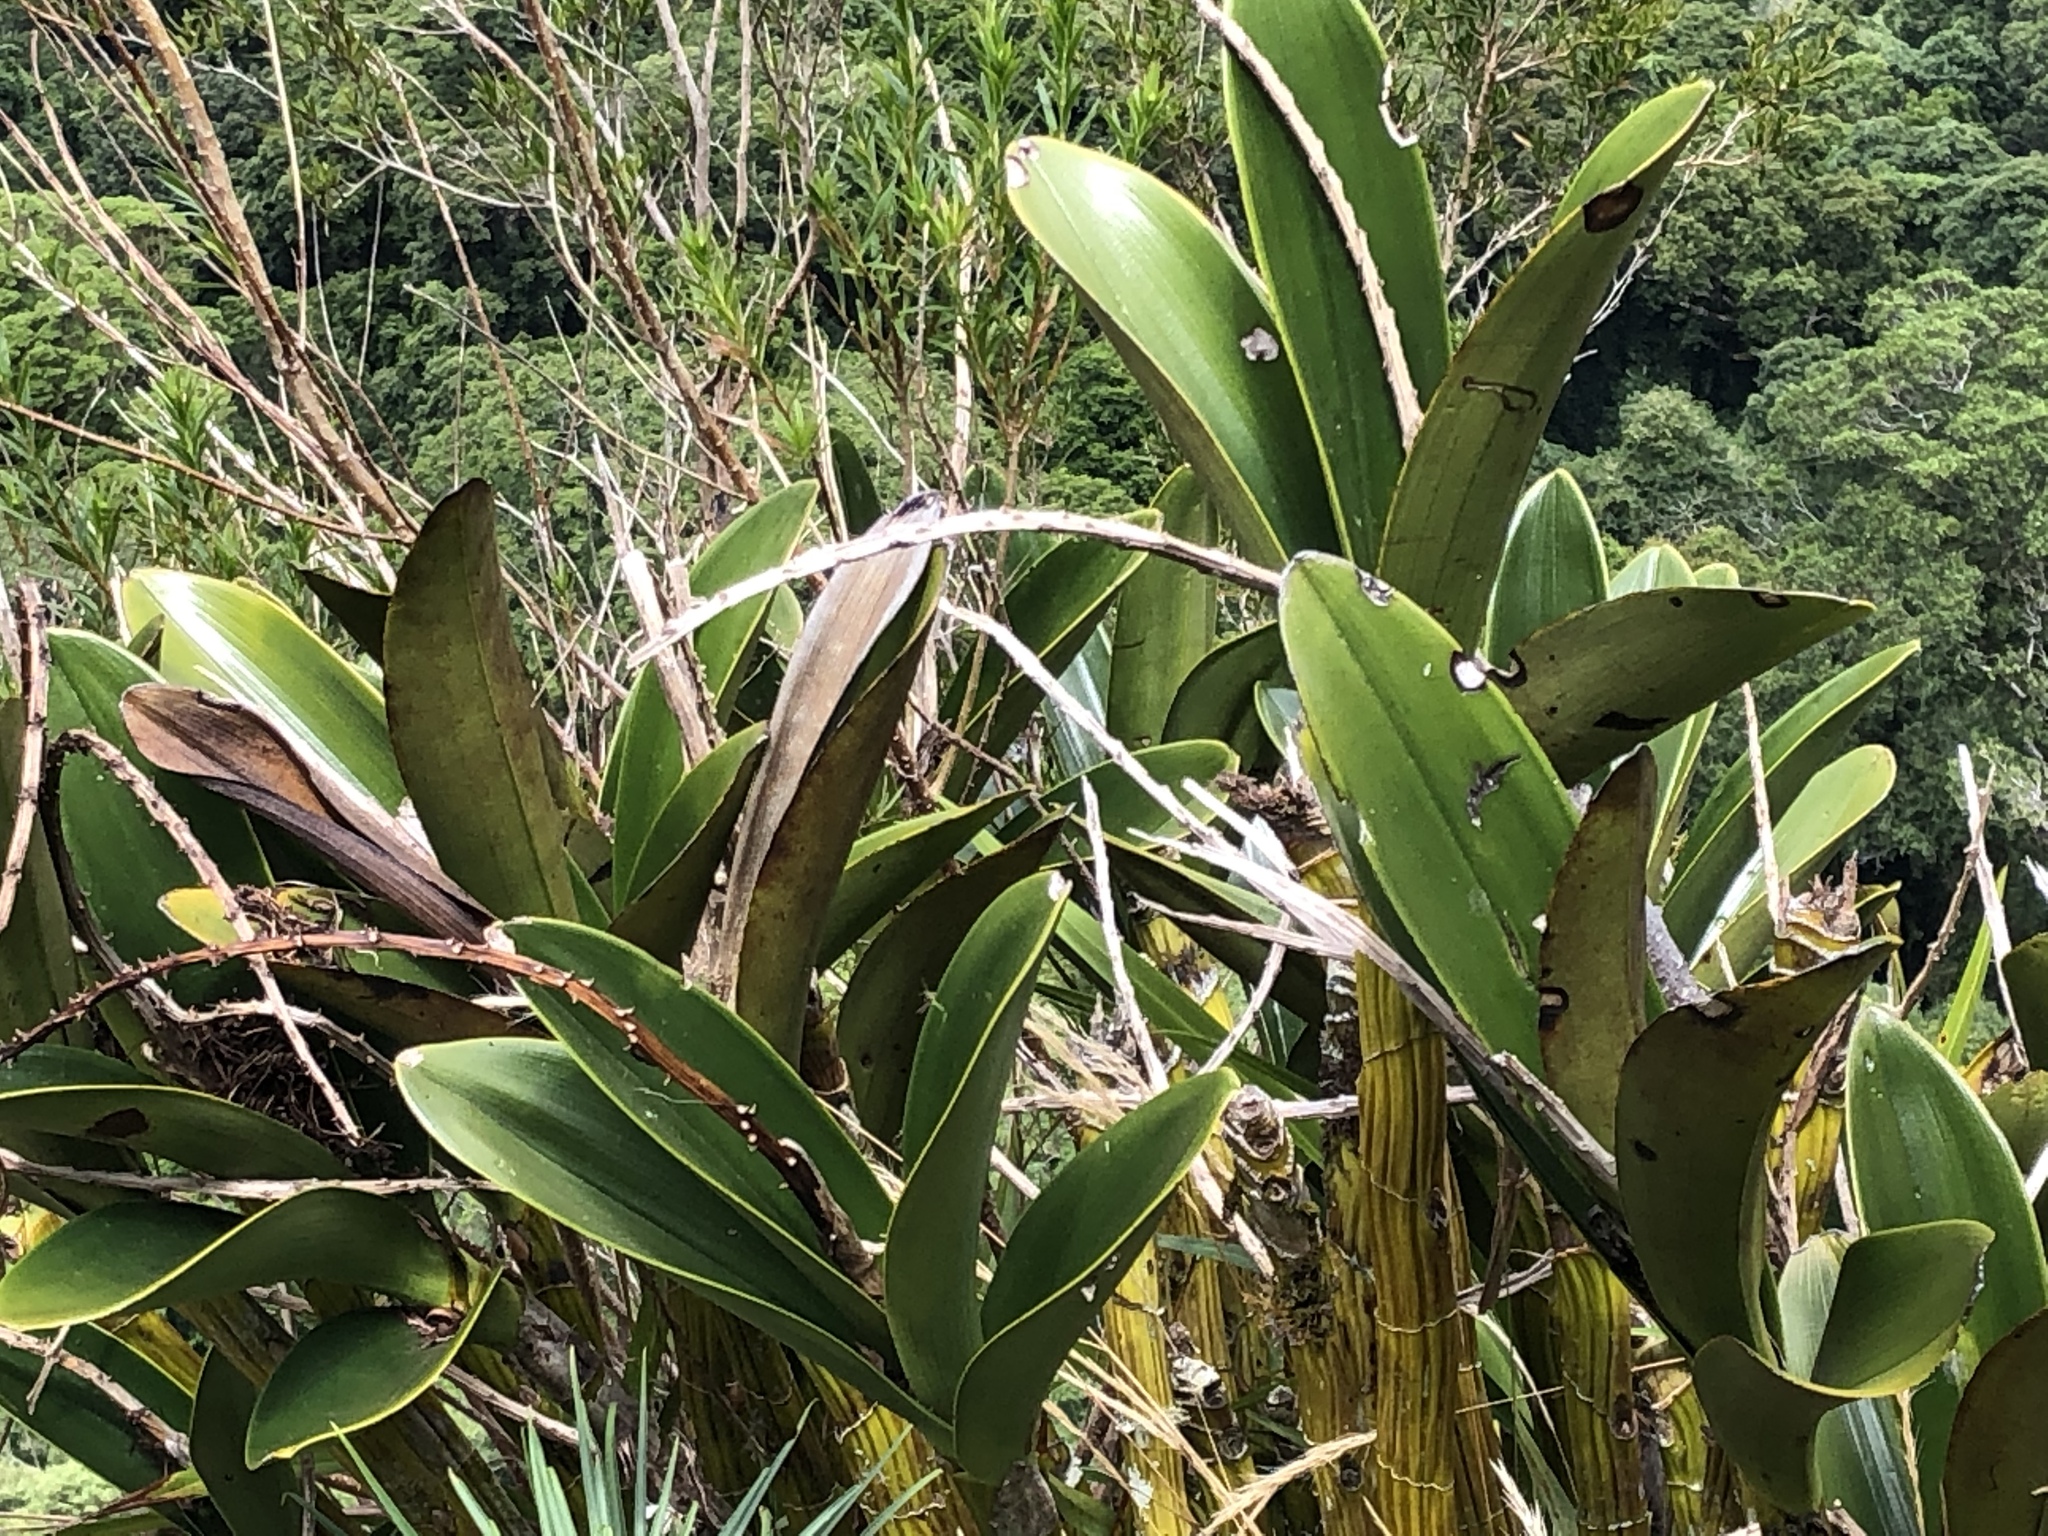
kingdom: Plantae
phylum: Tracheophyta
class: Liliopsida
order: Asparagales
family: Orchidaceae
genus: Dendrobium
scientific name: Dendrobium speciosum
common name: Rock-lily
